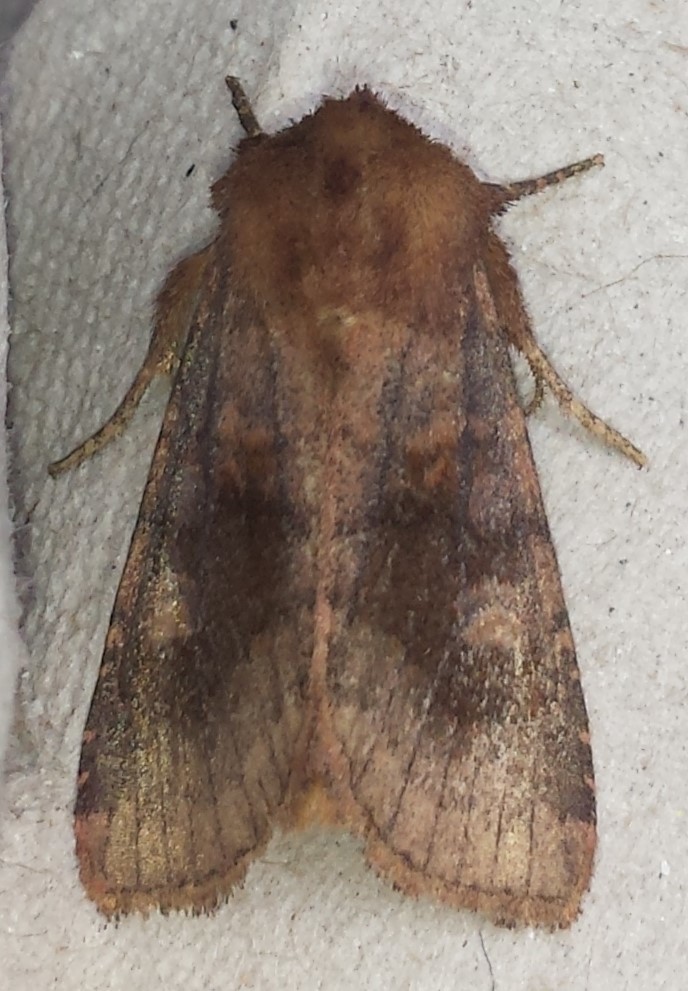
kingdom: Animalia
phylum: Arthropoda
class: Insecta
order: Lepidoptera
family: Noctuidae
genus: Nephelodes
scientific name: Nephelodes minians
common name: Bronzed cutworm
